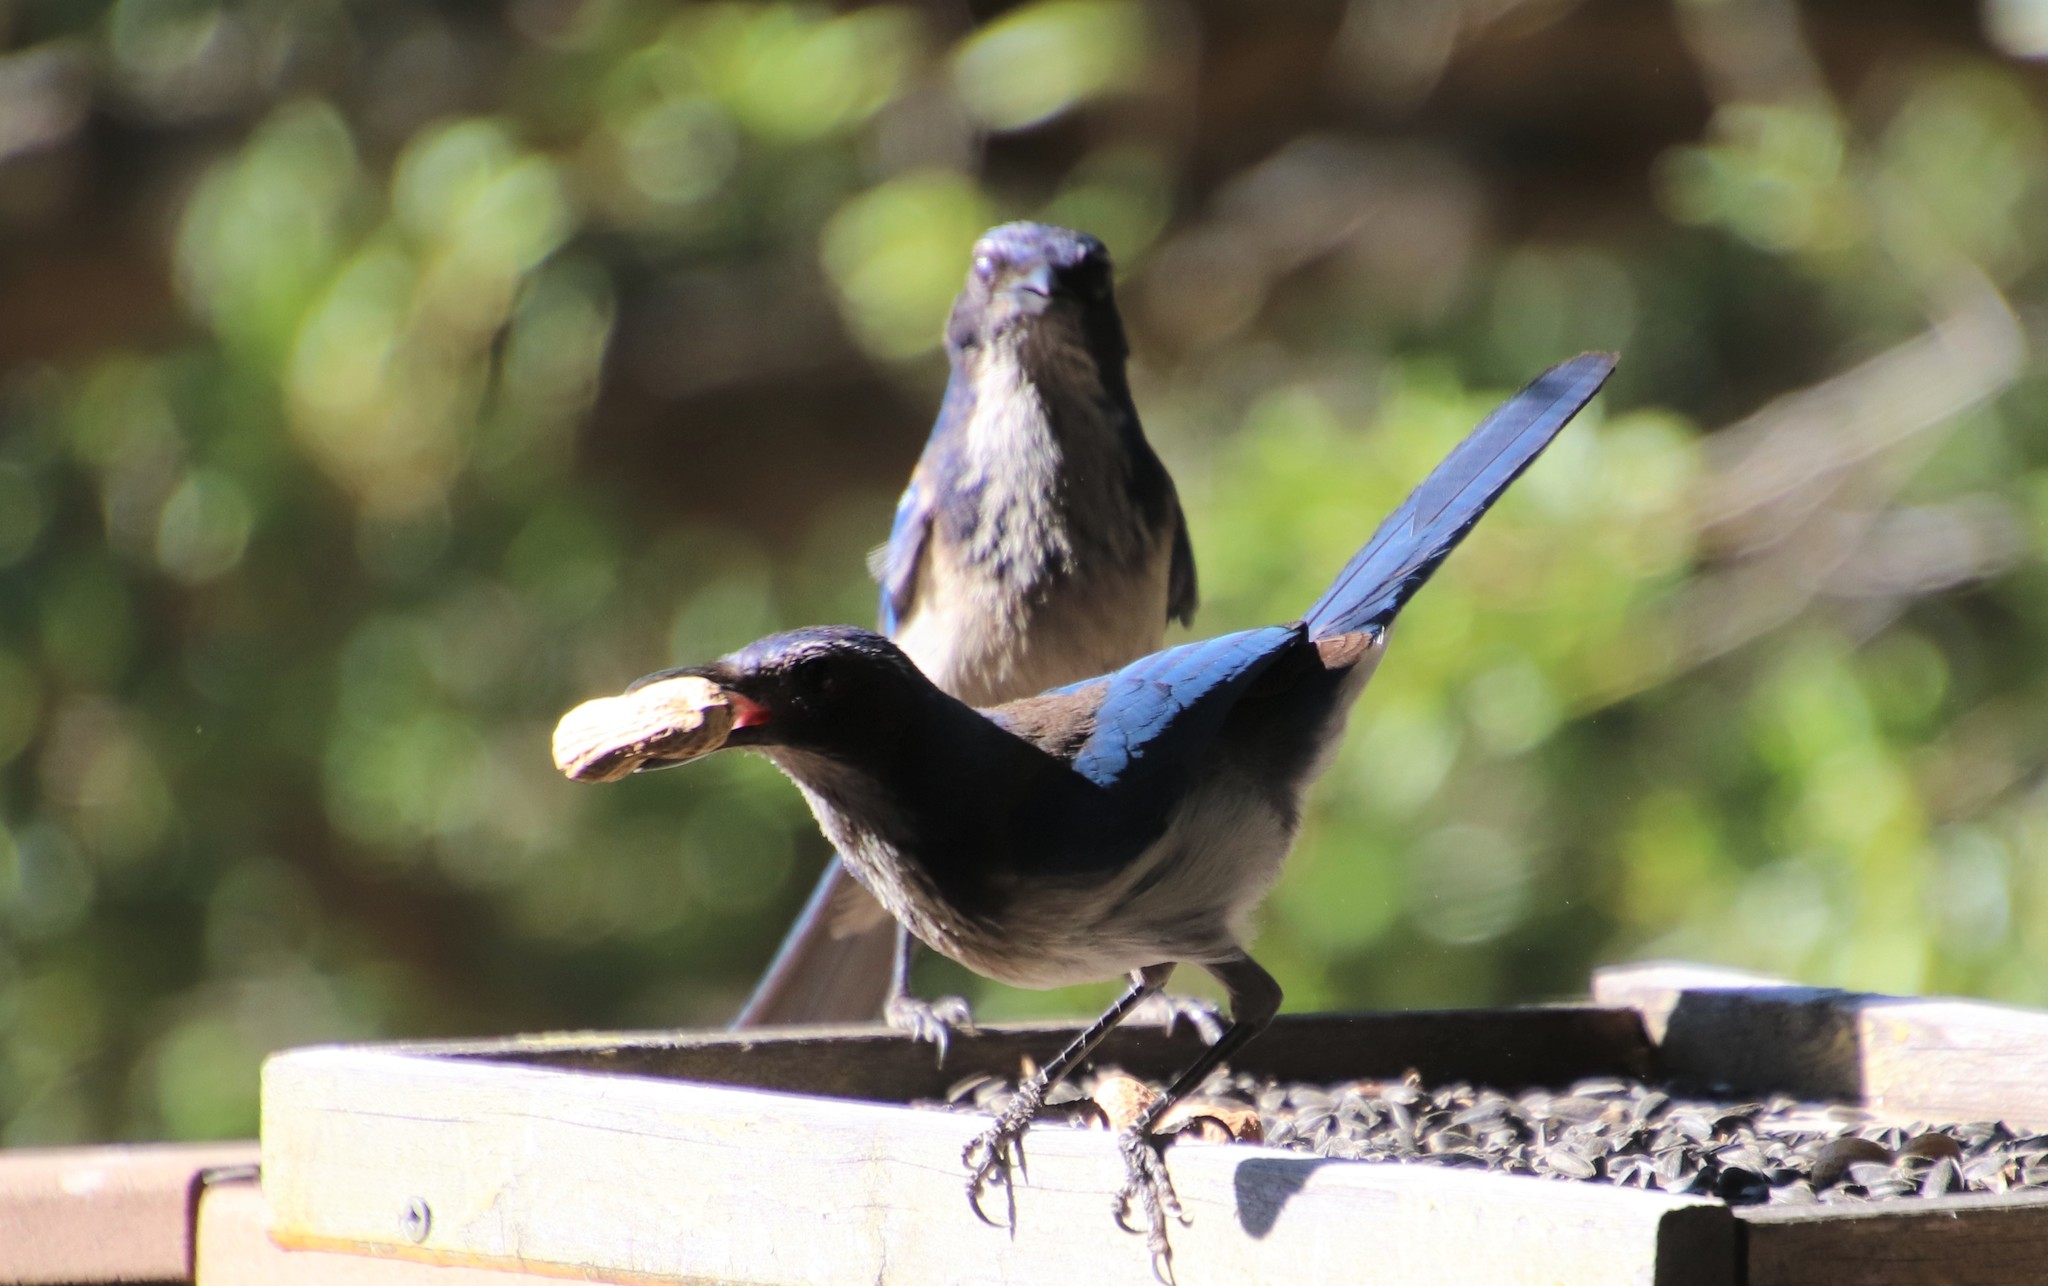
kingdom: Animalia
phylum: Chordata
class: Aves
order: Passeriformes
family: Corvidae
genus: Aphelocoma
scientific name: Aphelocoma californica
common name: California scrub-jay
